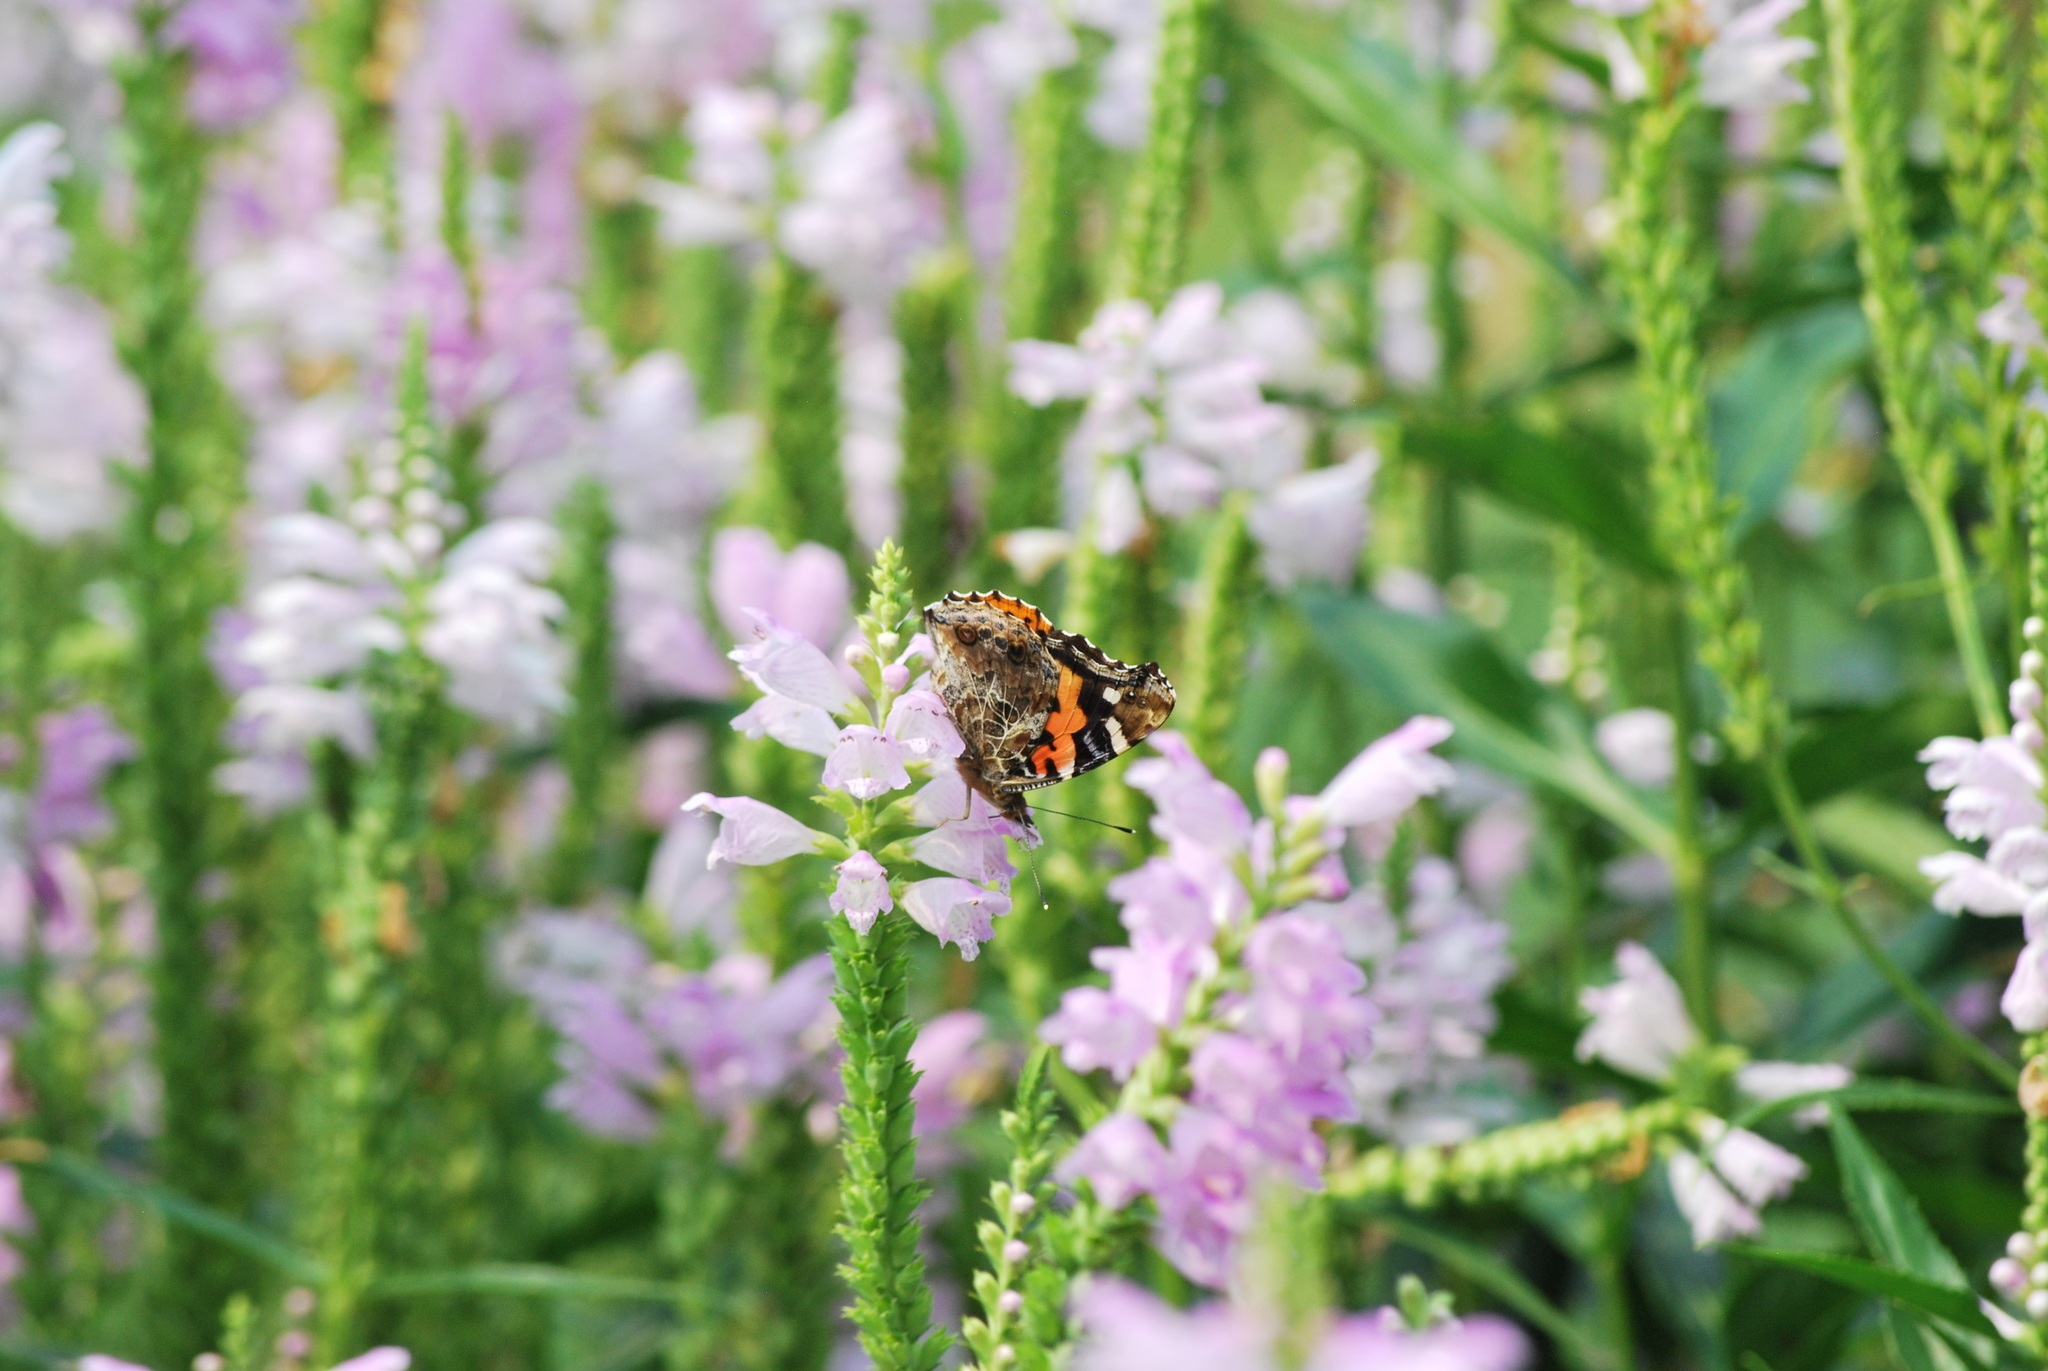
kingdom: Animalia
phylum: Arthropoda
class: Insecta
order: Lepidoptera
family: Nymphalidae
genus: Vanessa
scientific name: Vanessa indica
